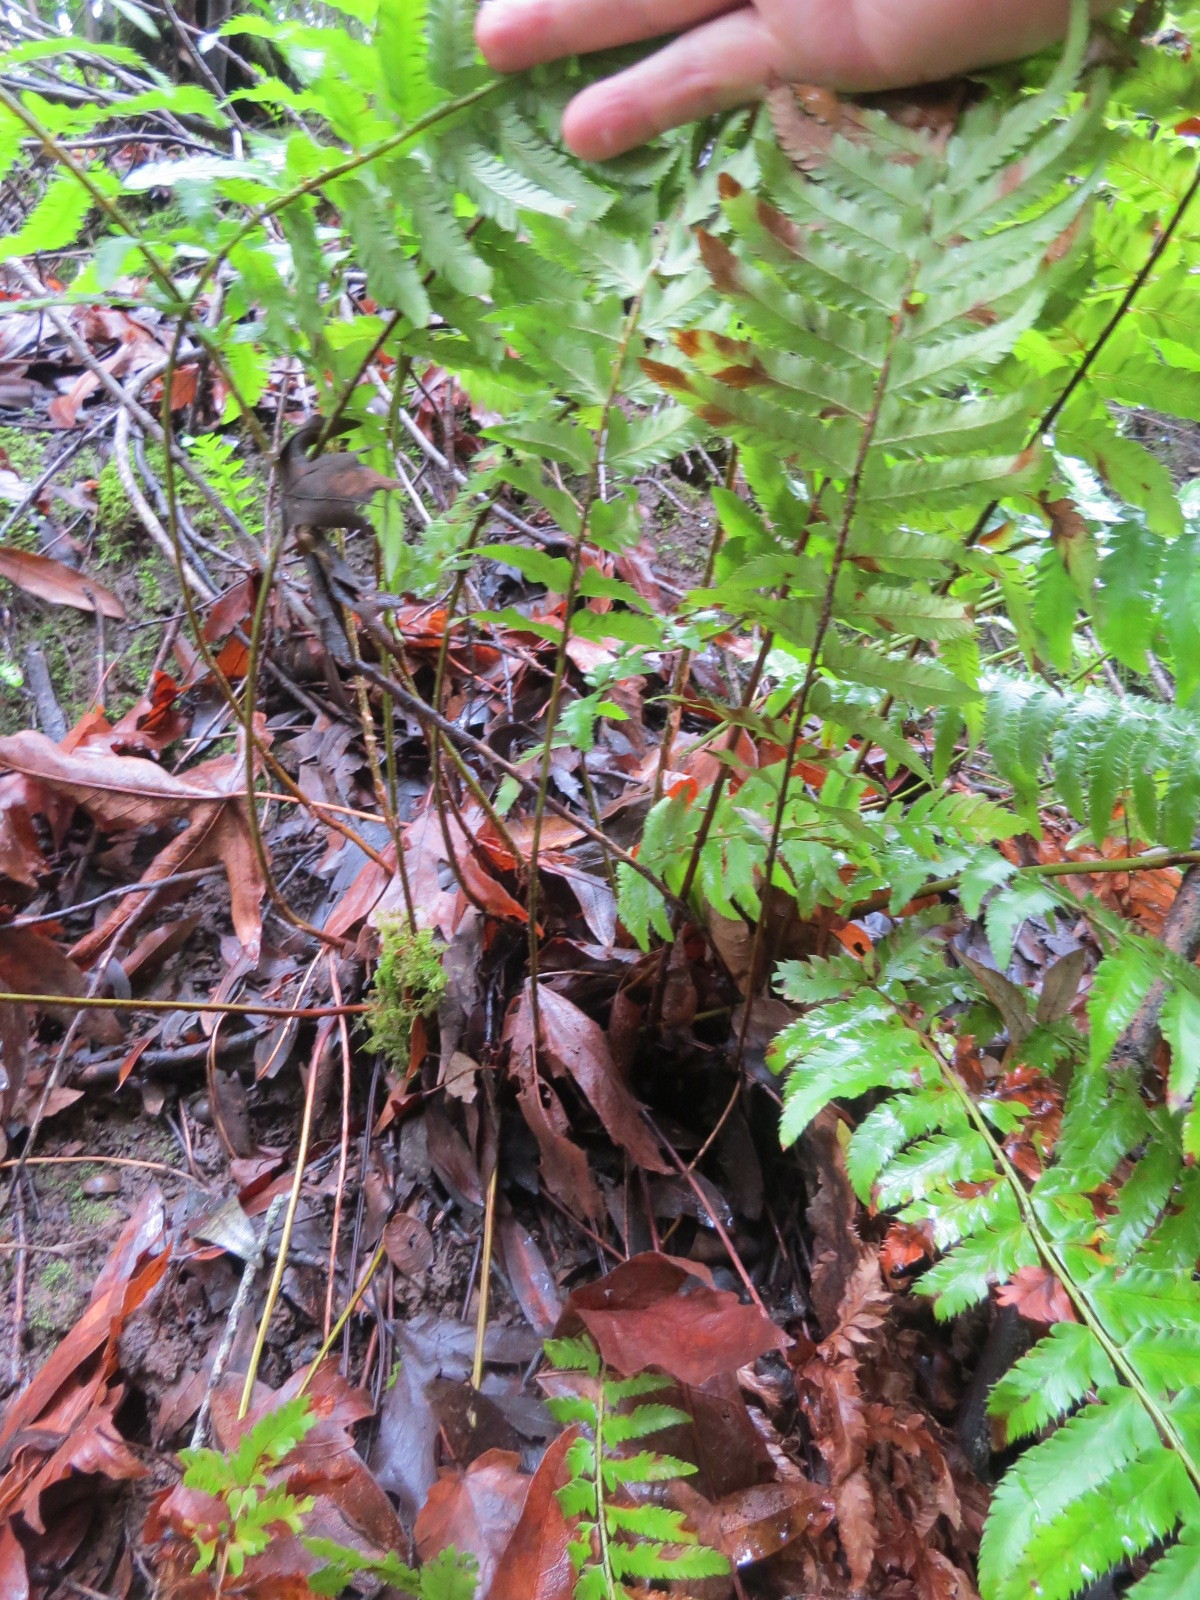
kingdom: Plantae
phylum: Tracheophyta
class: Polypodiopsida
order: Polypodiales
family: Dryopteridaceae
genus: Polystichum
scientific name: Polystichum
